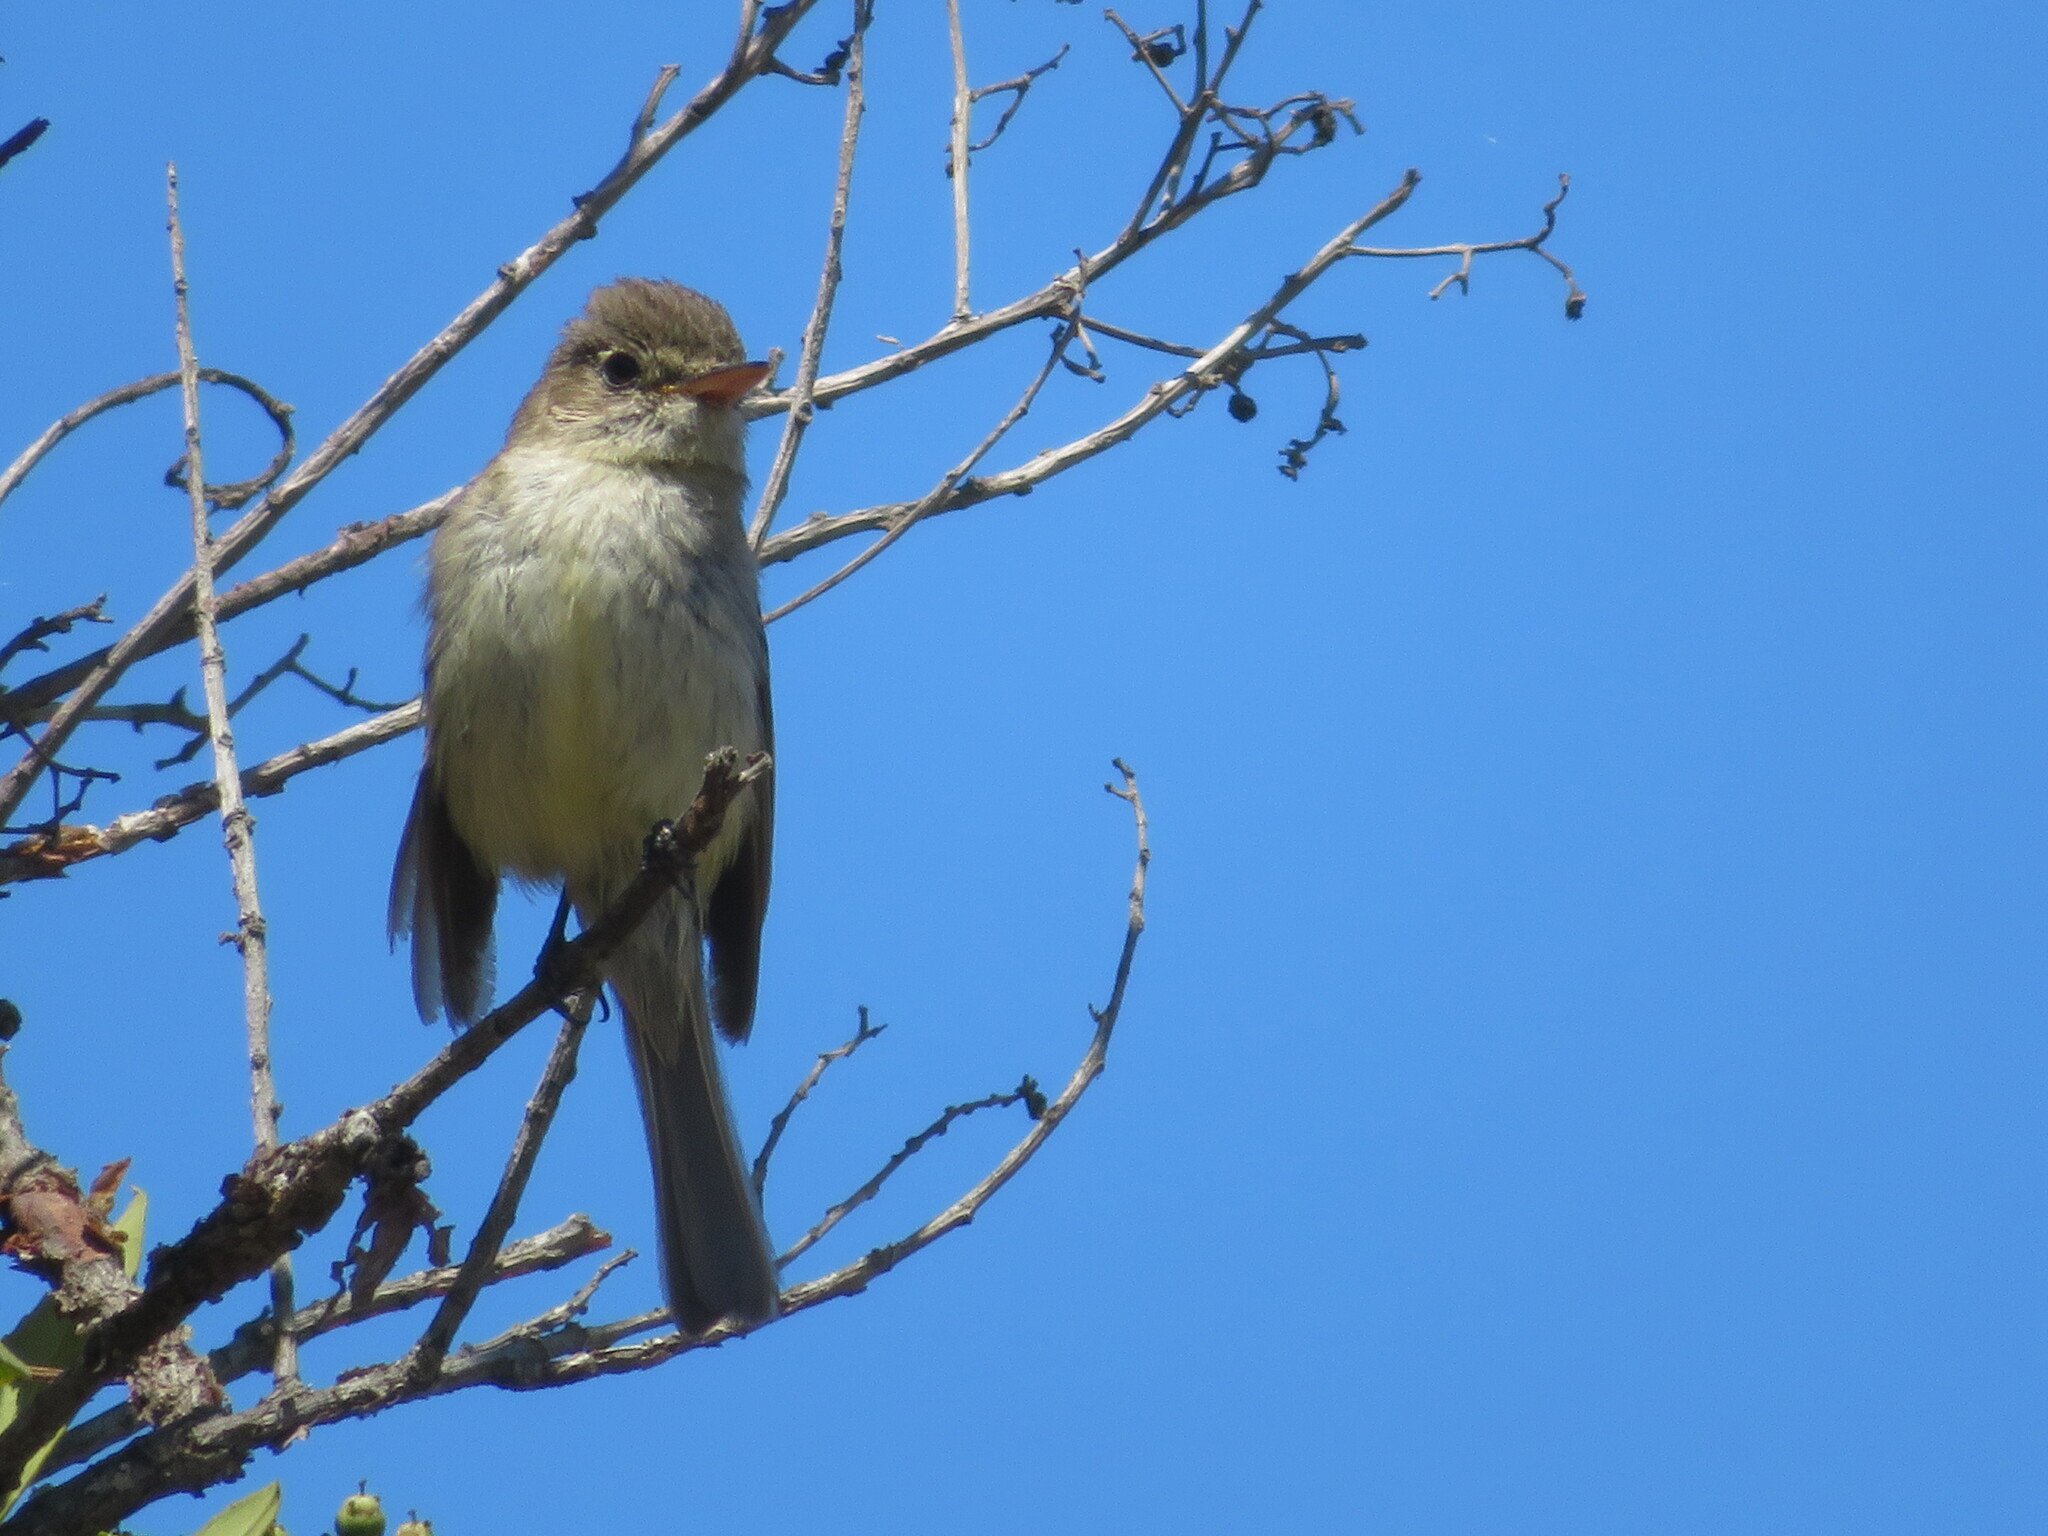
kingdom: Animalia
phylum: Chordata
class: Aves
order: Passeriformes
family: Tyrannidae
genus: Empidonax
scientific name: Empidonax difficilis
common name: Pacific-slope flycatcher
